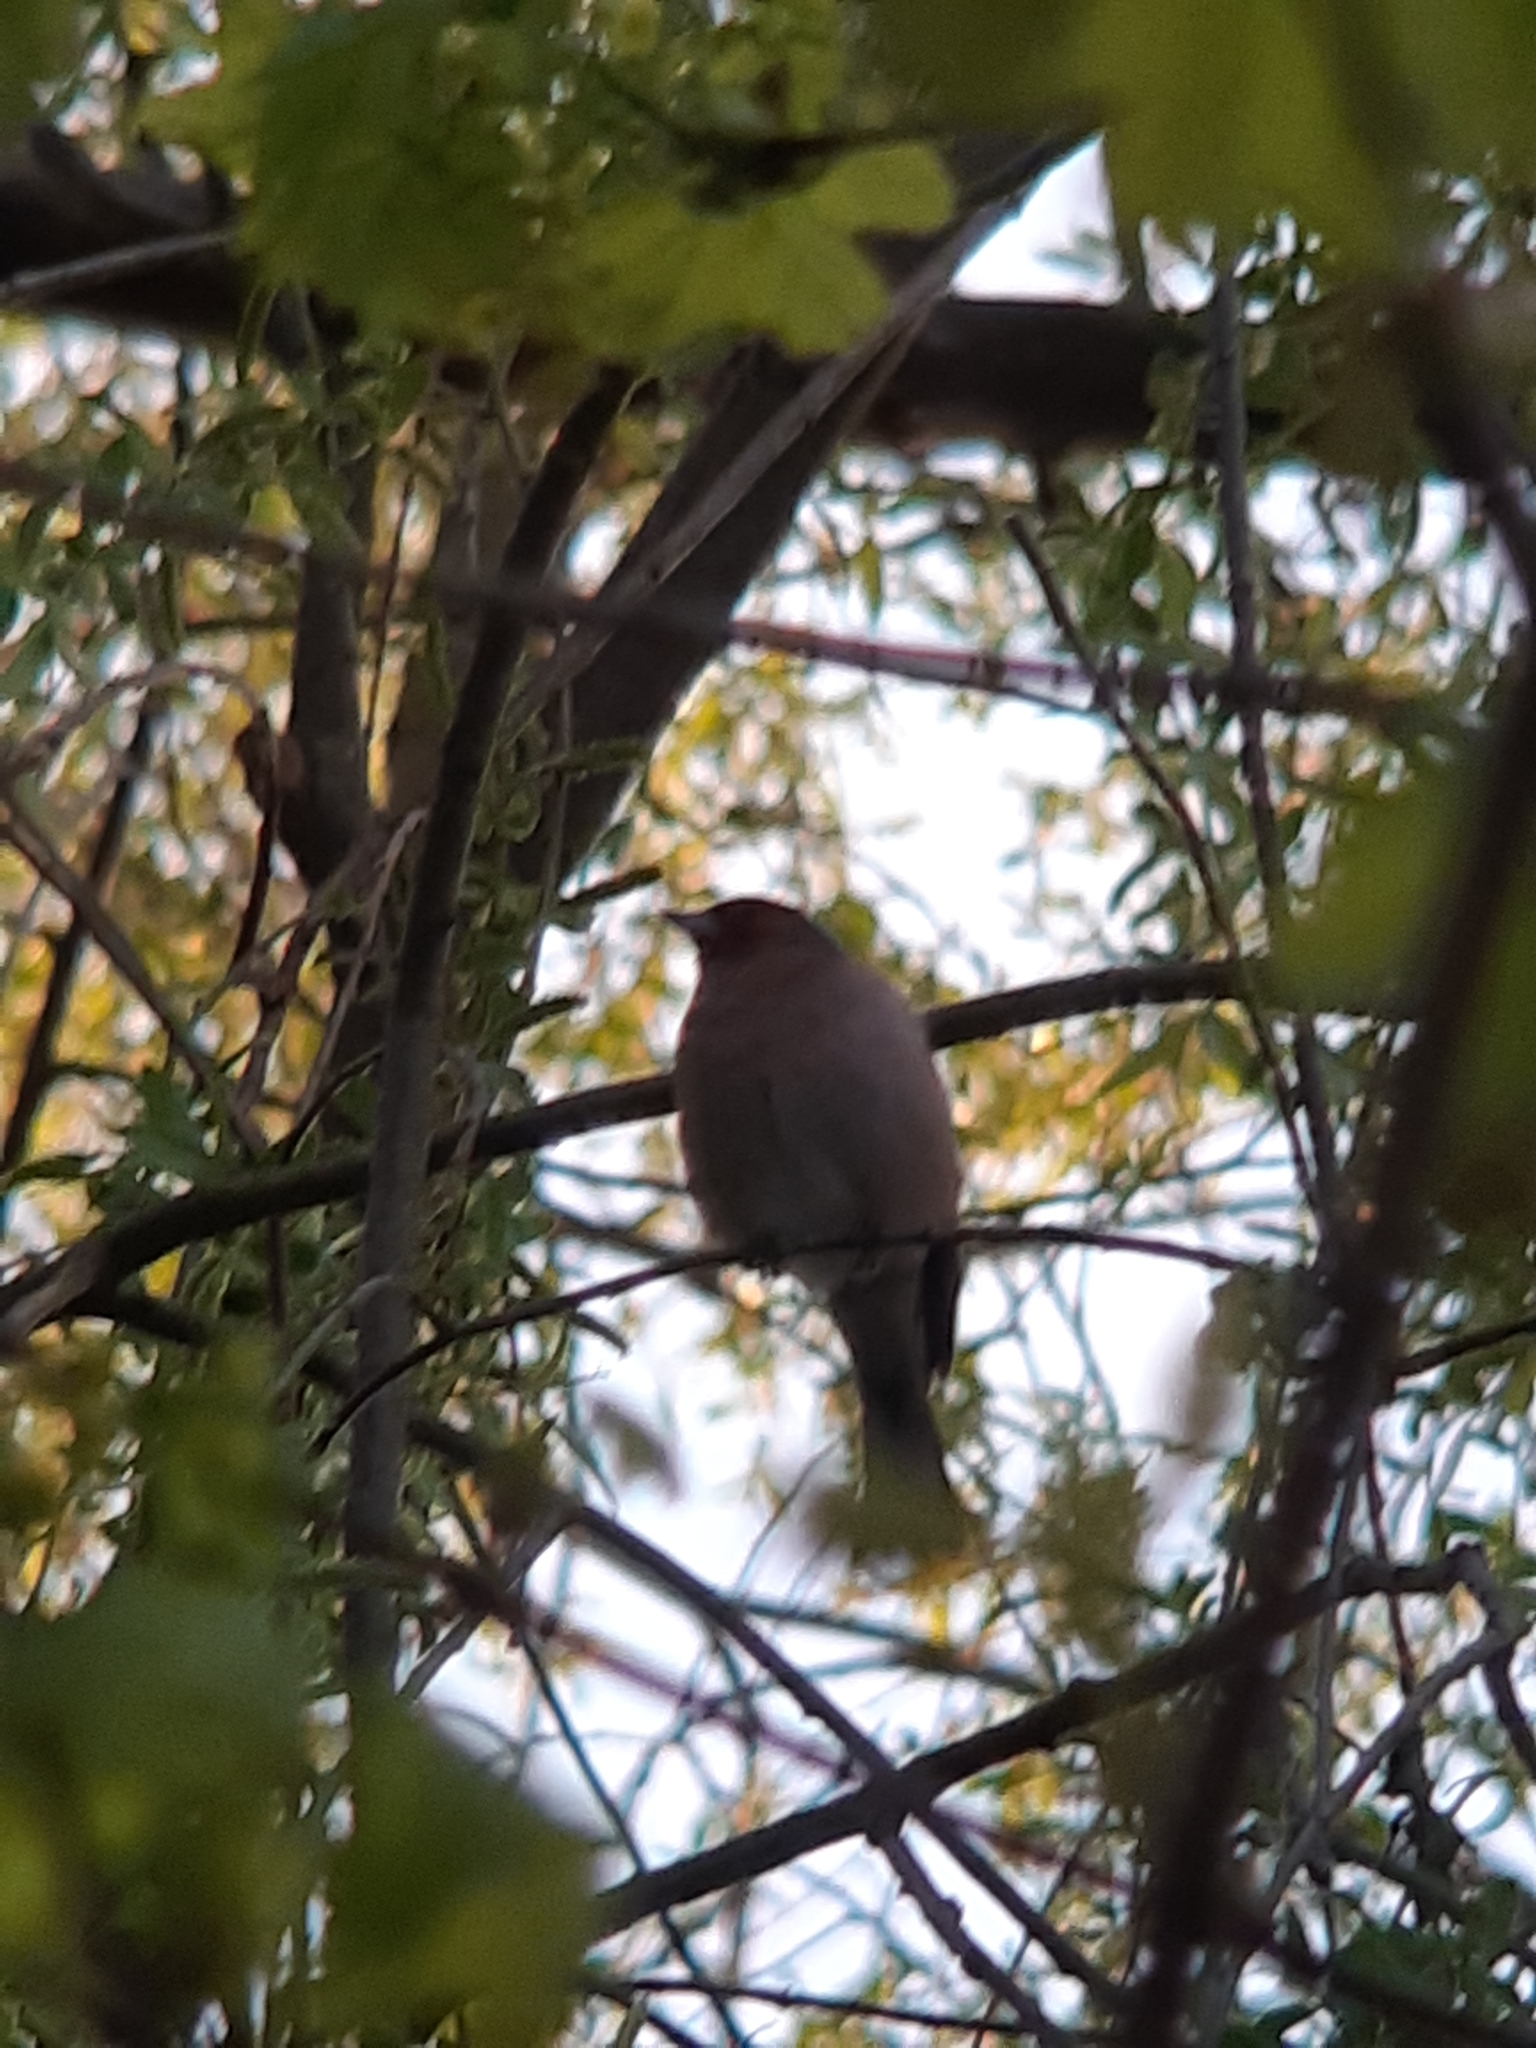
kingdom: Animalia
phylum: Chordata
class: Aves
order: Passeriformes
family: Fringillidae
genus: Fringilla
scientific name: Fringilla coelebs
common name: Common chaffinch
